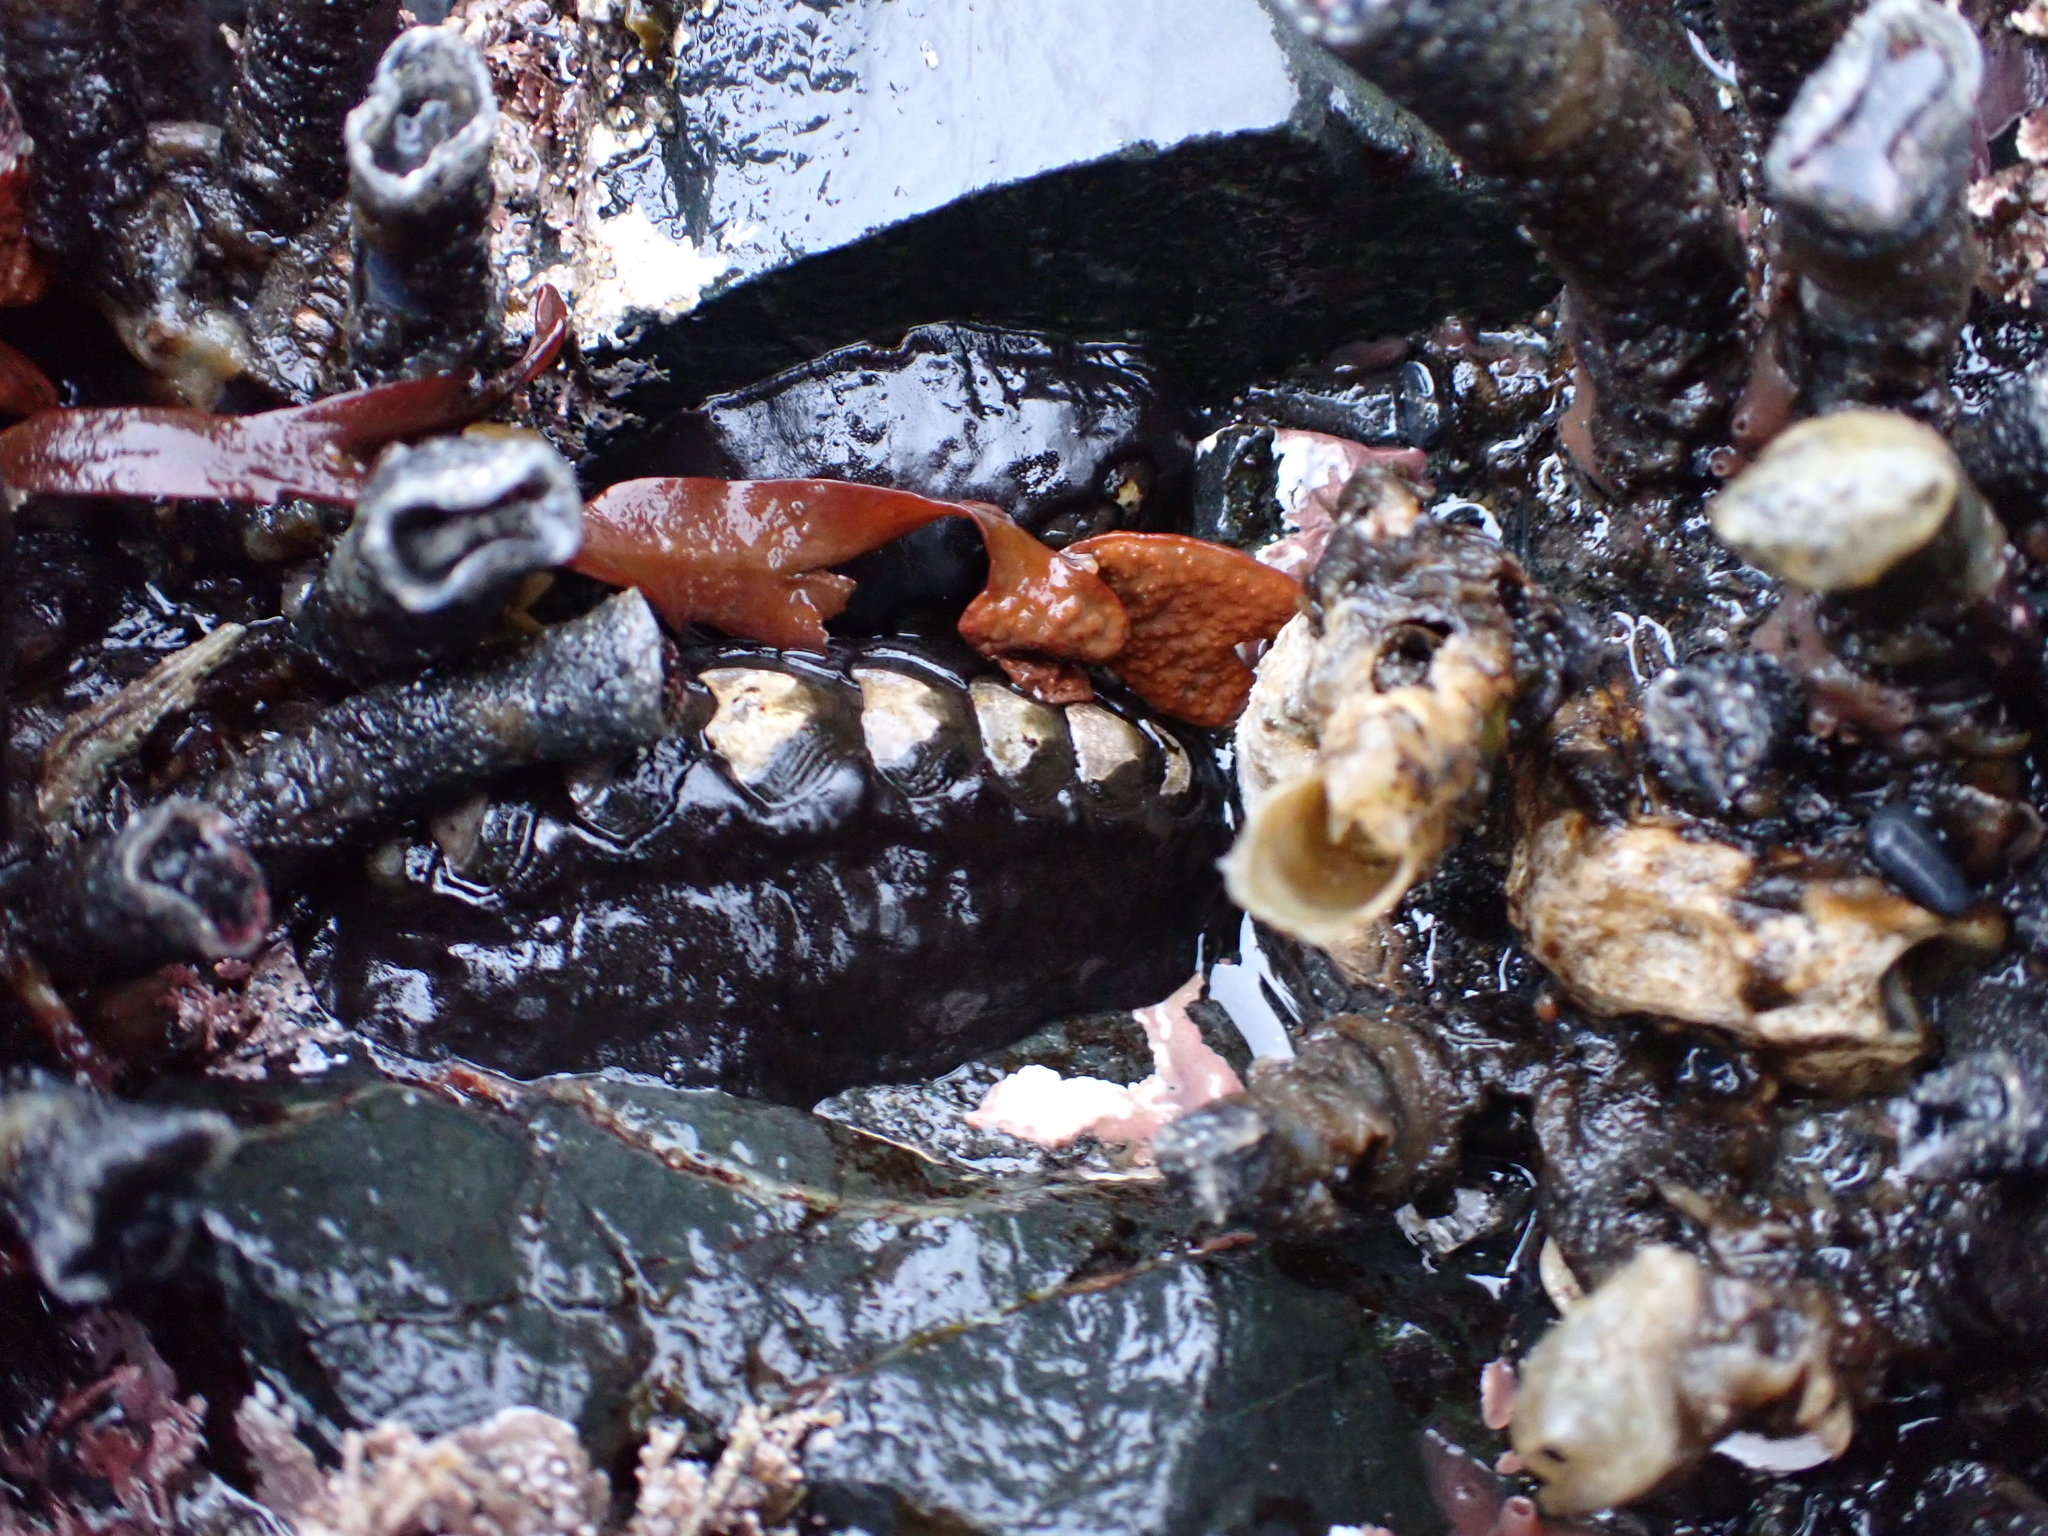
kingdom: Animalia
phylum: Mollusca
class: Polyplacophora
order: Chitonida
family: Mopaliidae
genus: Katharina
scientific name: Katharina tunicata
